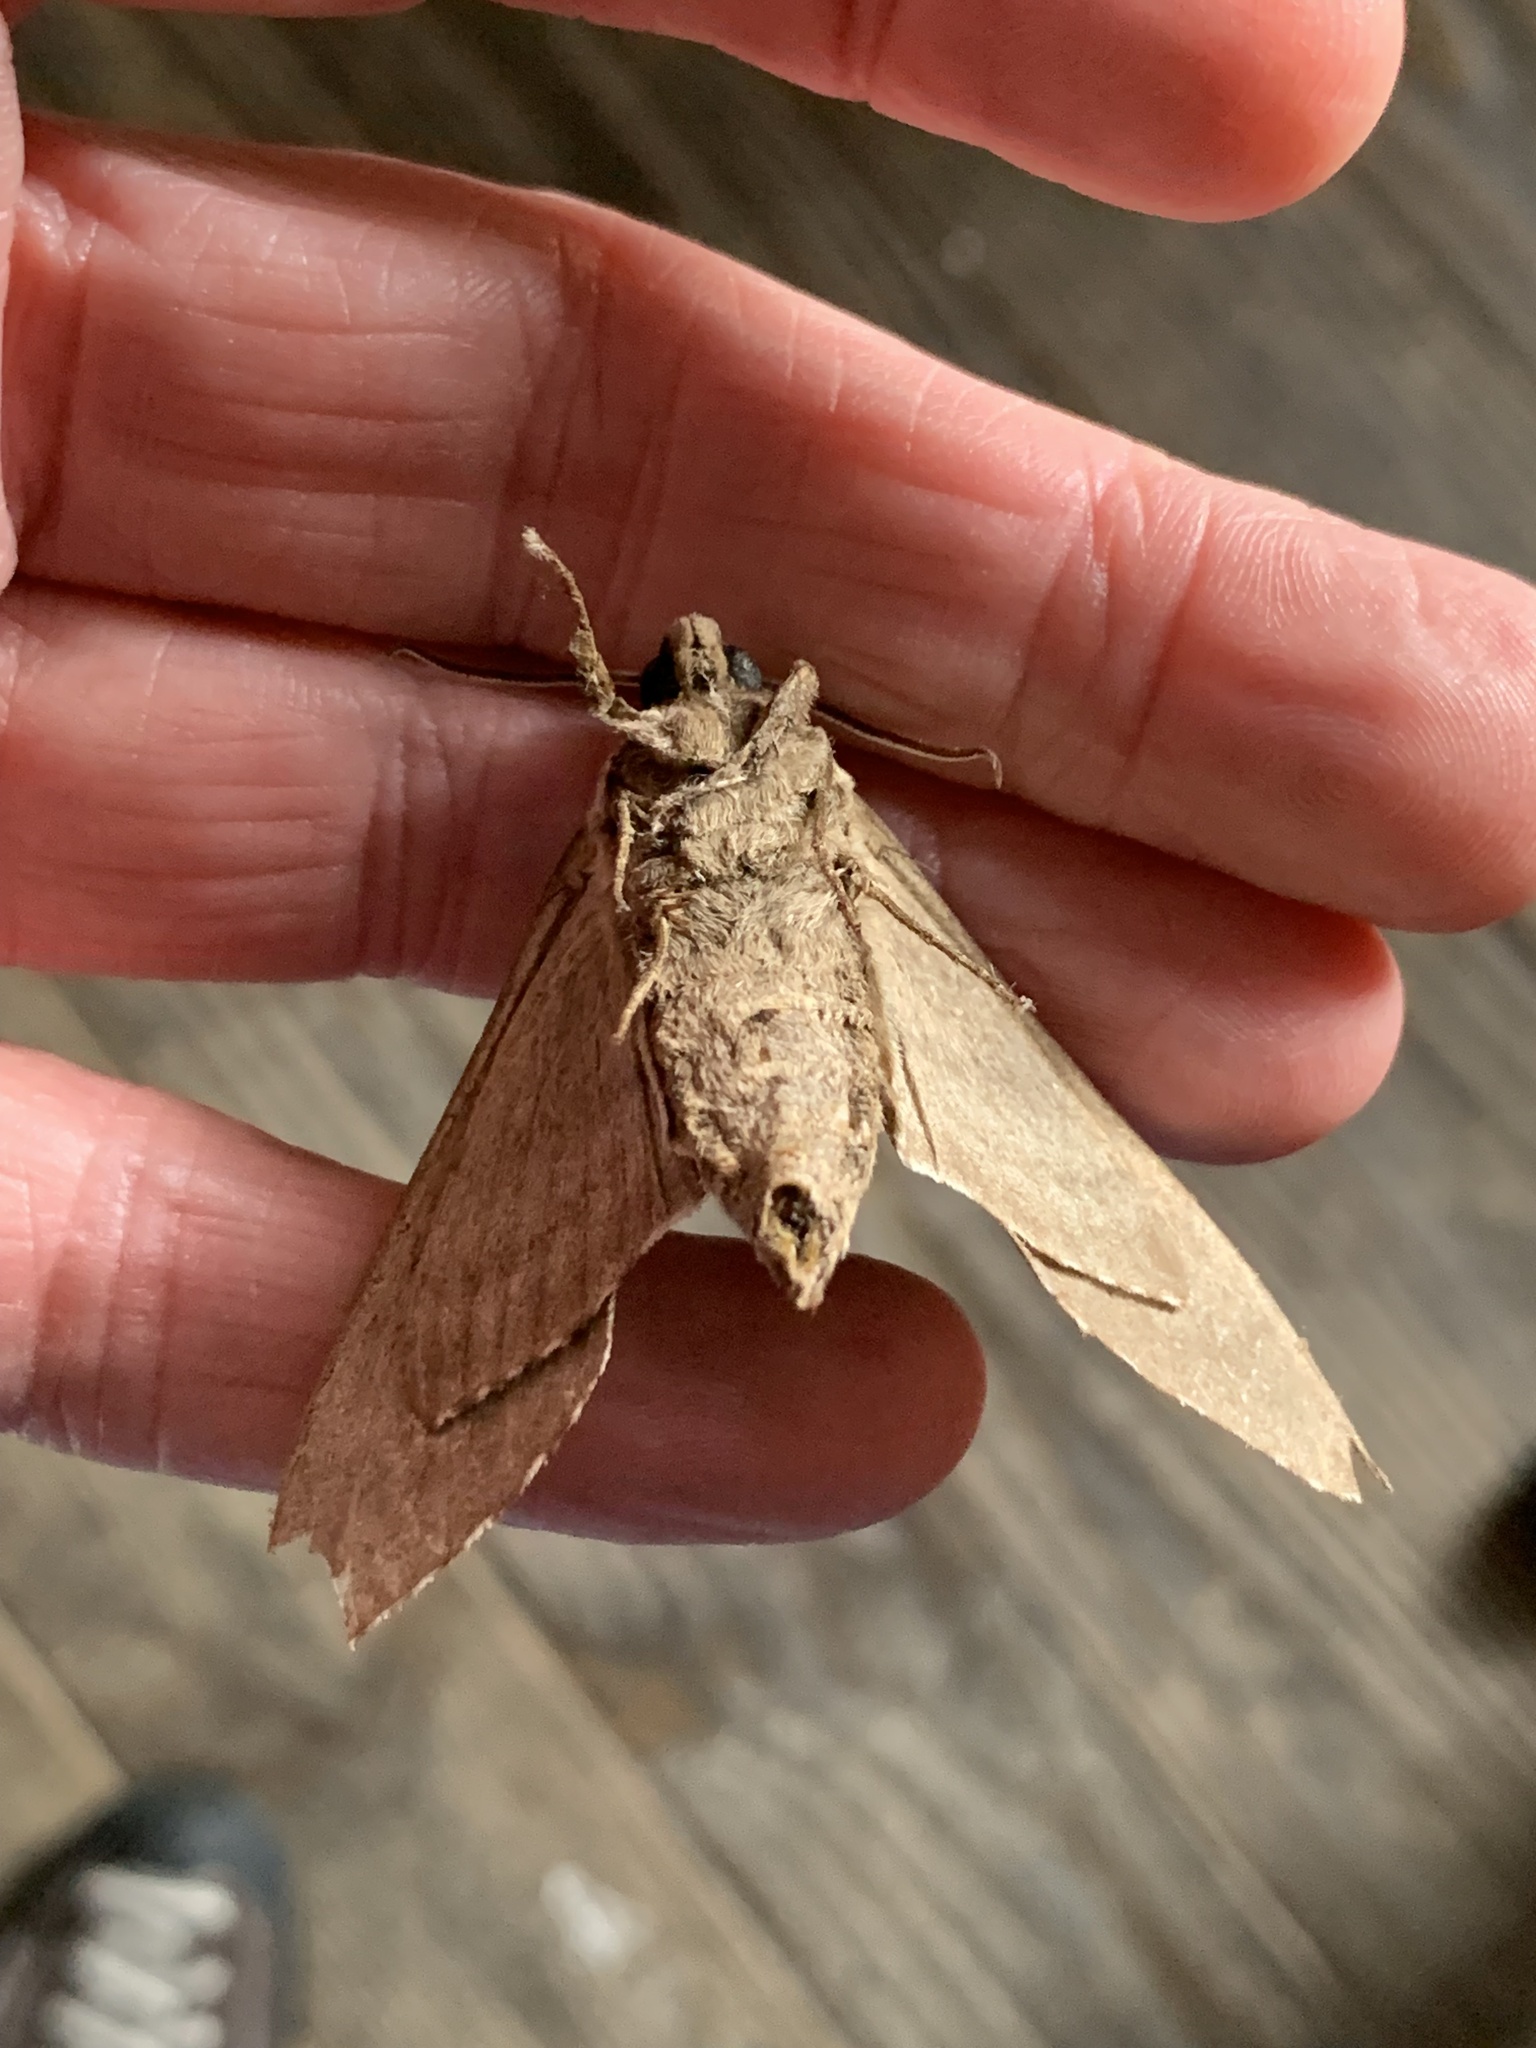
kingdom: Animalia
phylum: Arthropoda
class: Insecta
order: Lepidoptera
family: Sphingidae
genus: Ceratomia
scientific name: Ceratomia catalpae
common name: Catalpa hornworm
